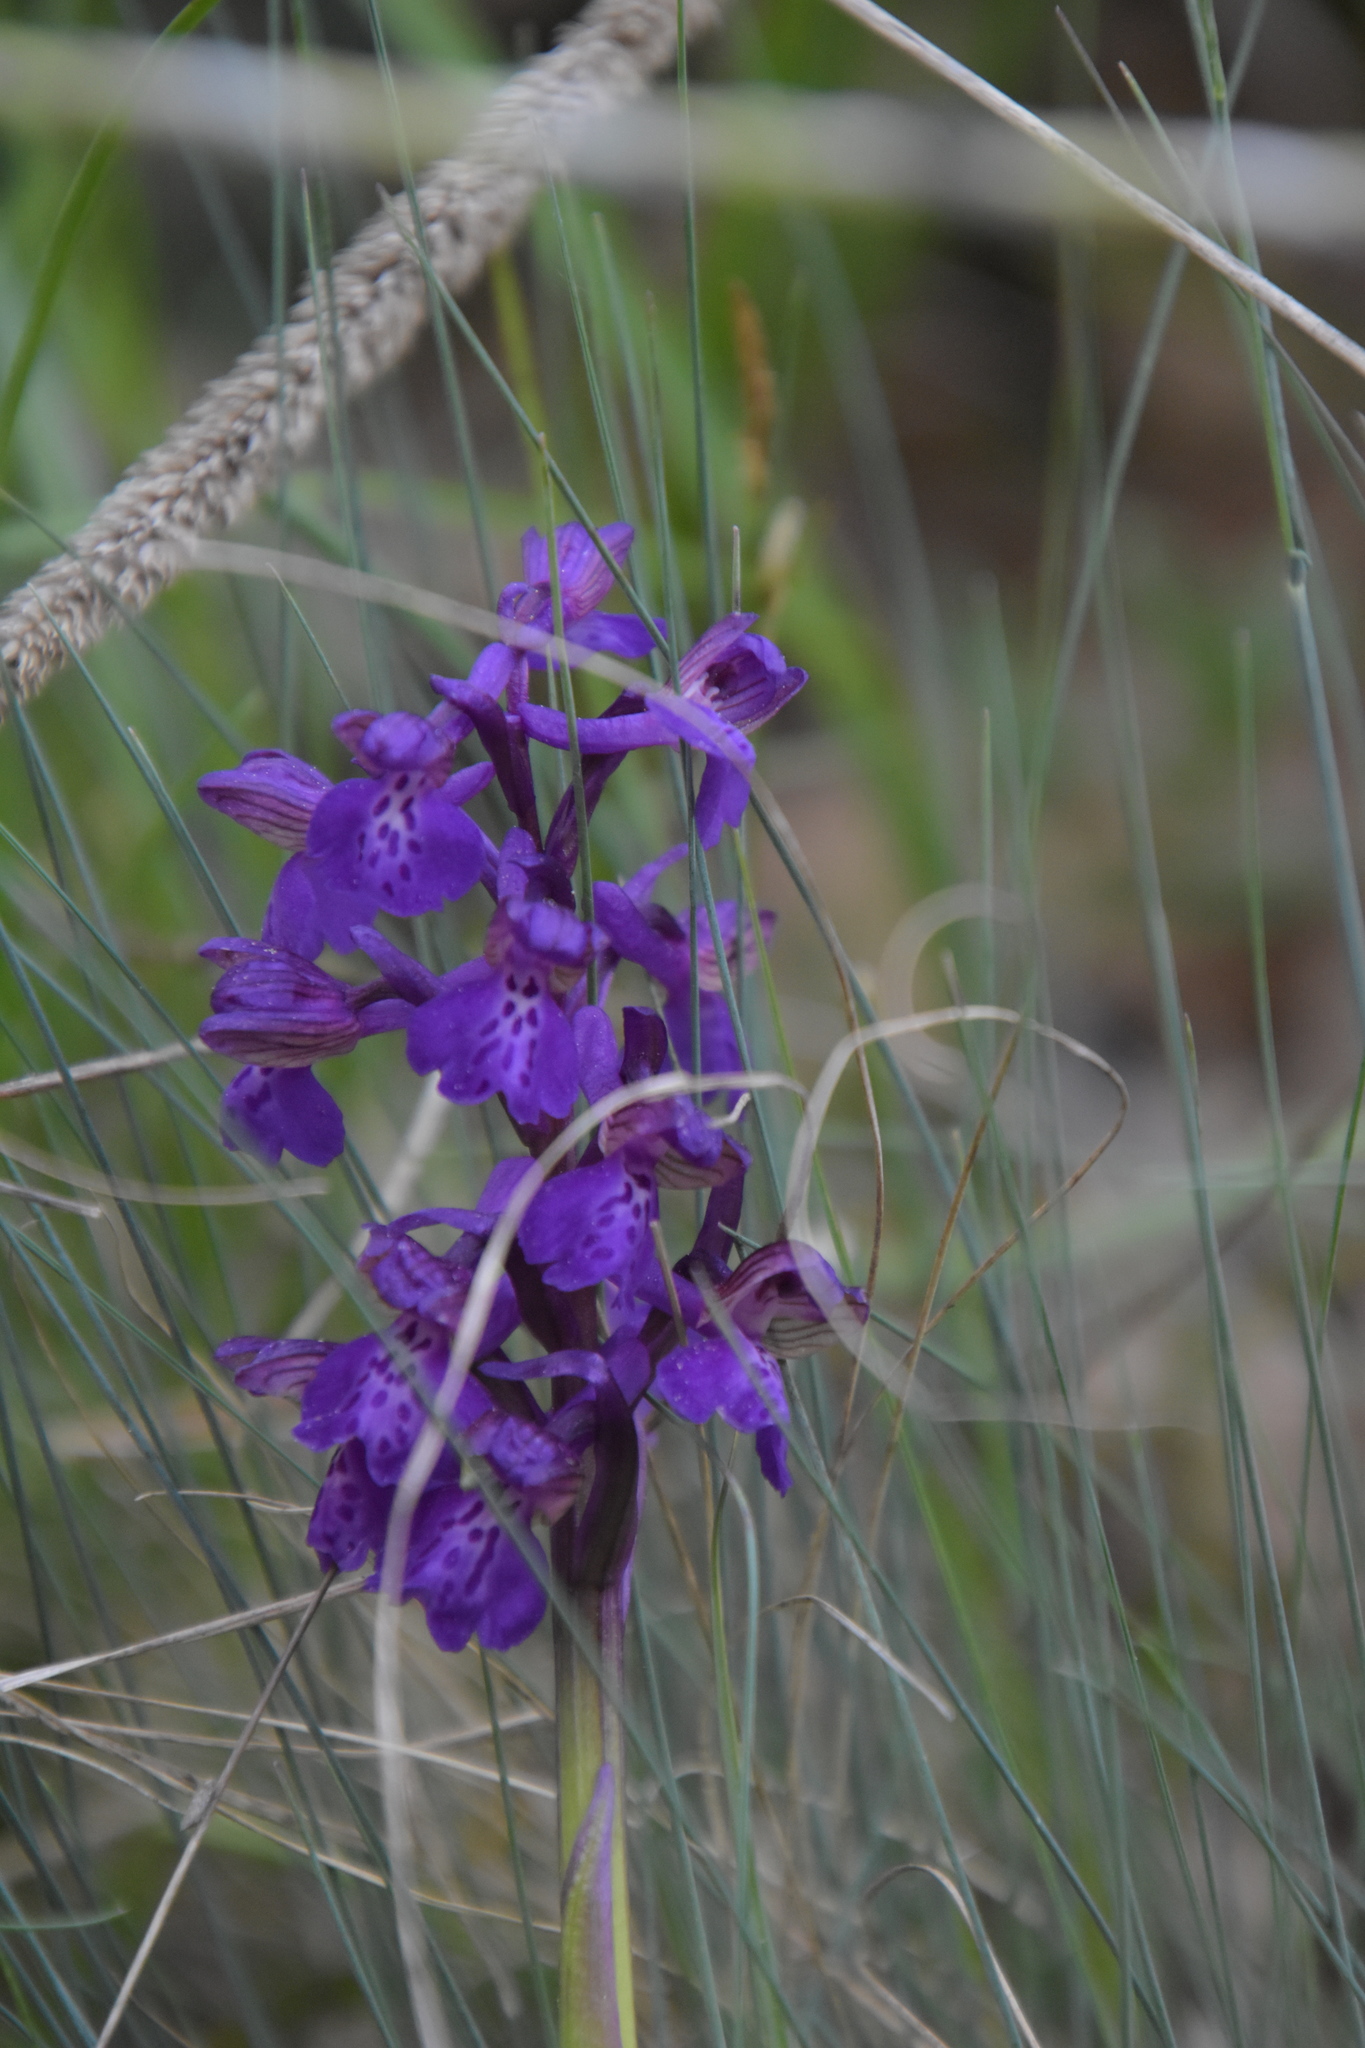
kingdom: Plantae
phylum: Tracheophyta
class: Liliopsida
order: Asparagales
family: Orchidaceae
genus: Anacamptis
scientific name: Anacamptis morio
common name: Green-winged orchid
